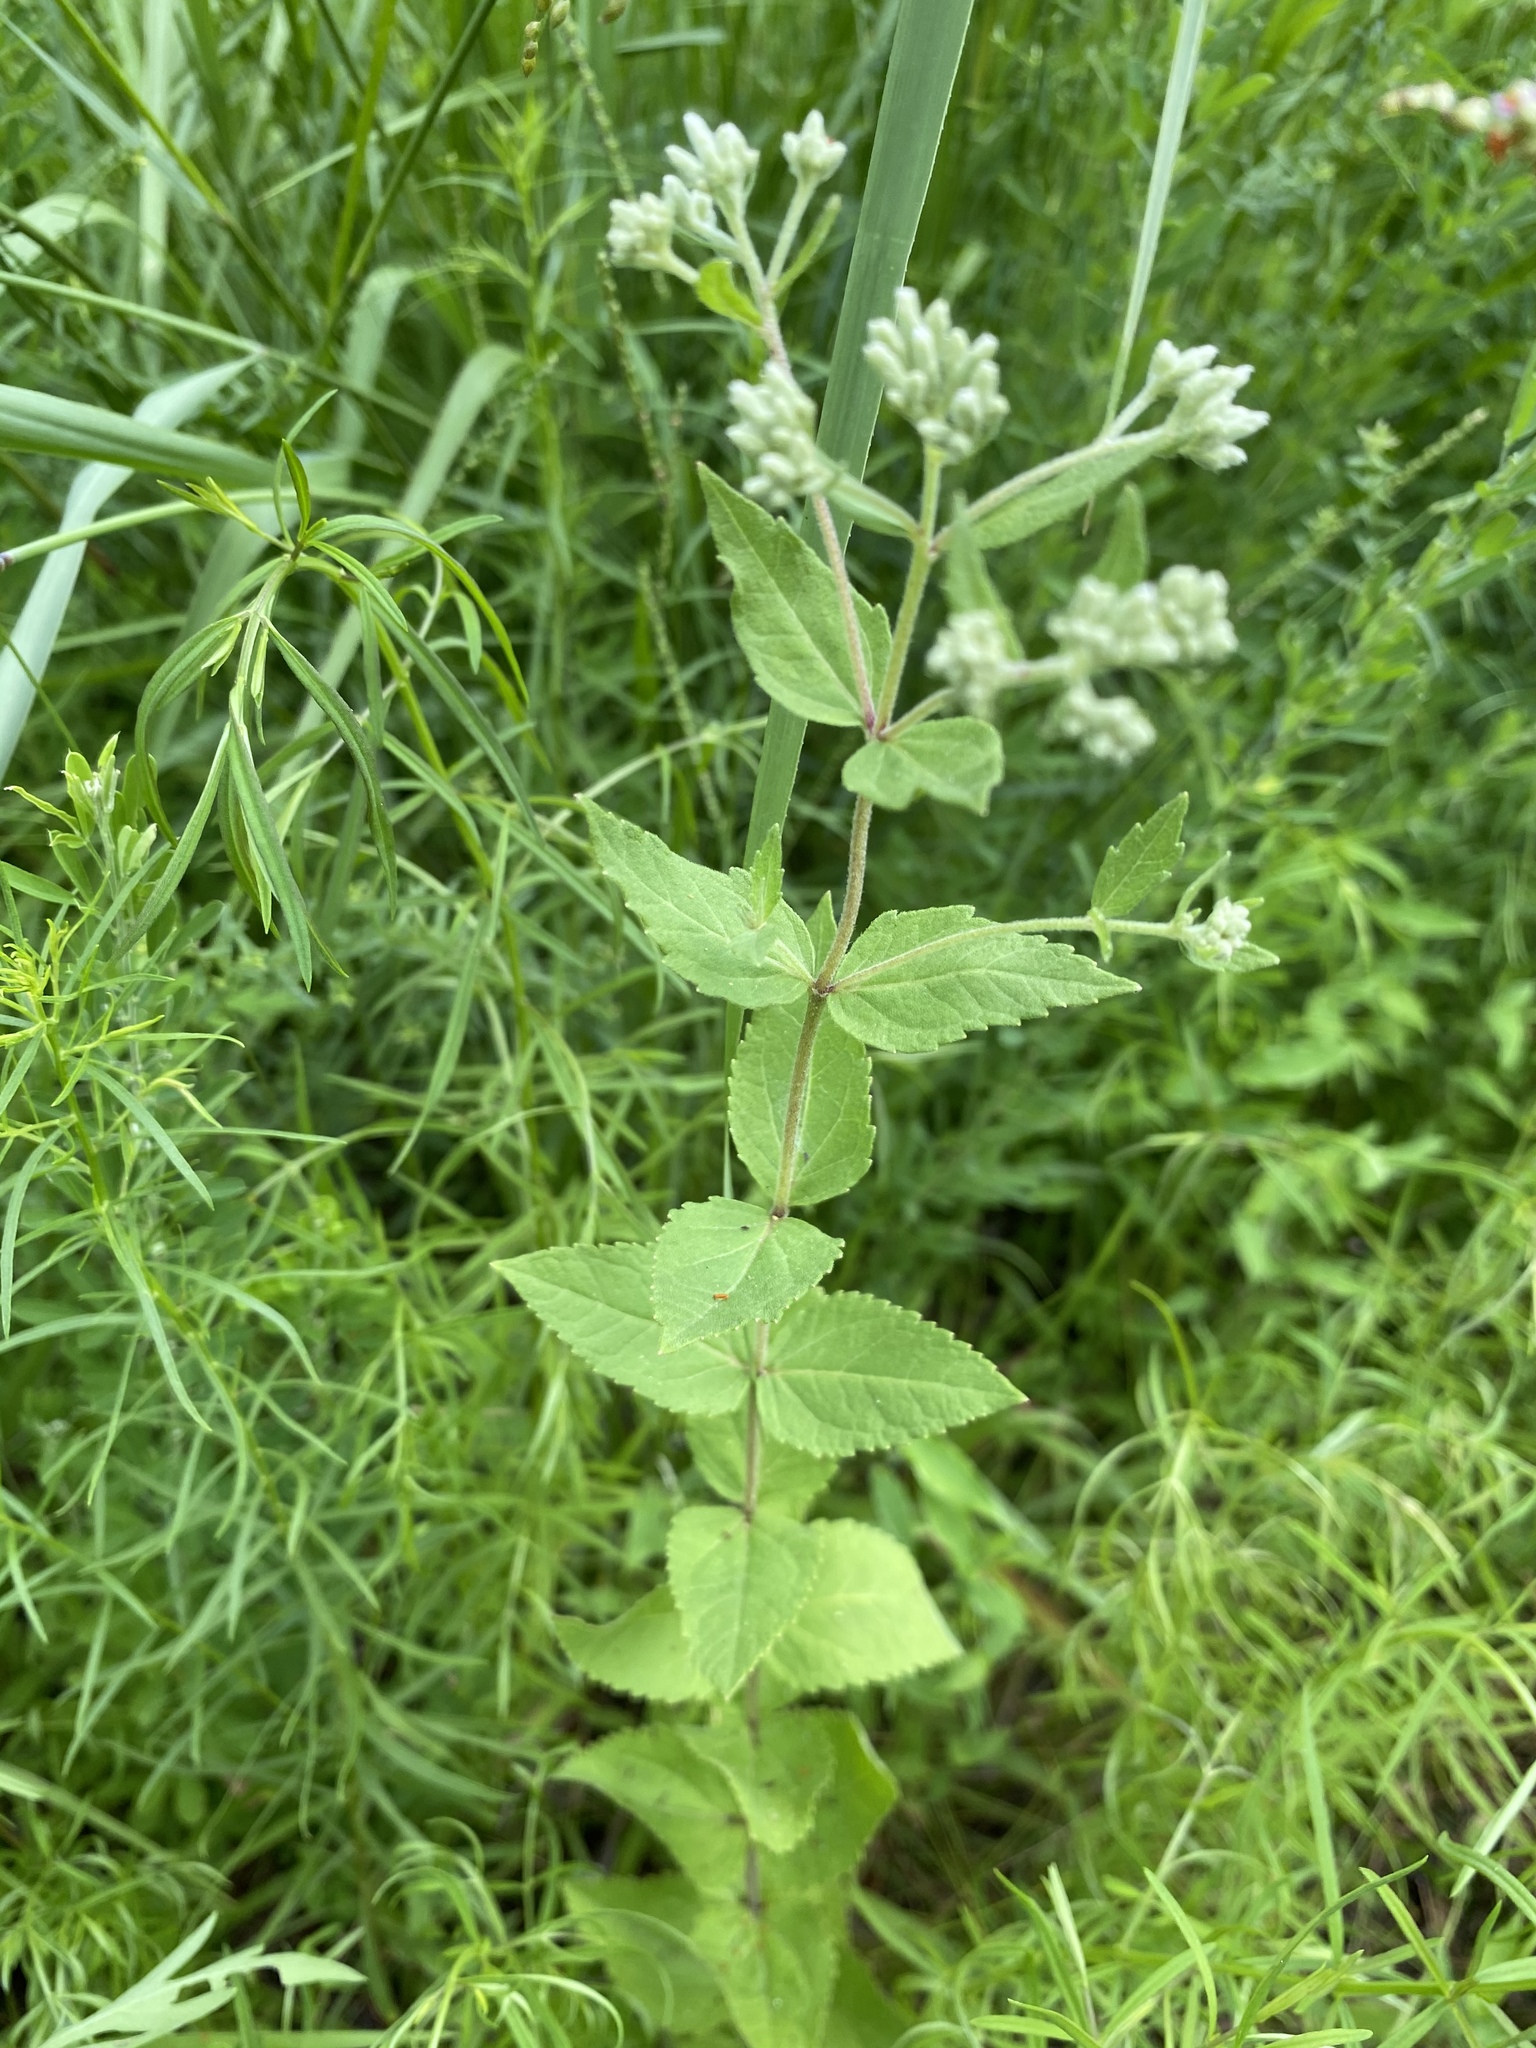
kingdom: Plantae
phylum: Tracheophyta
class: Magnoliopsida
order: Asterales
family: Asteraceae
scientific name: Asteraceae
